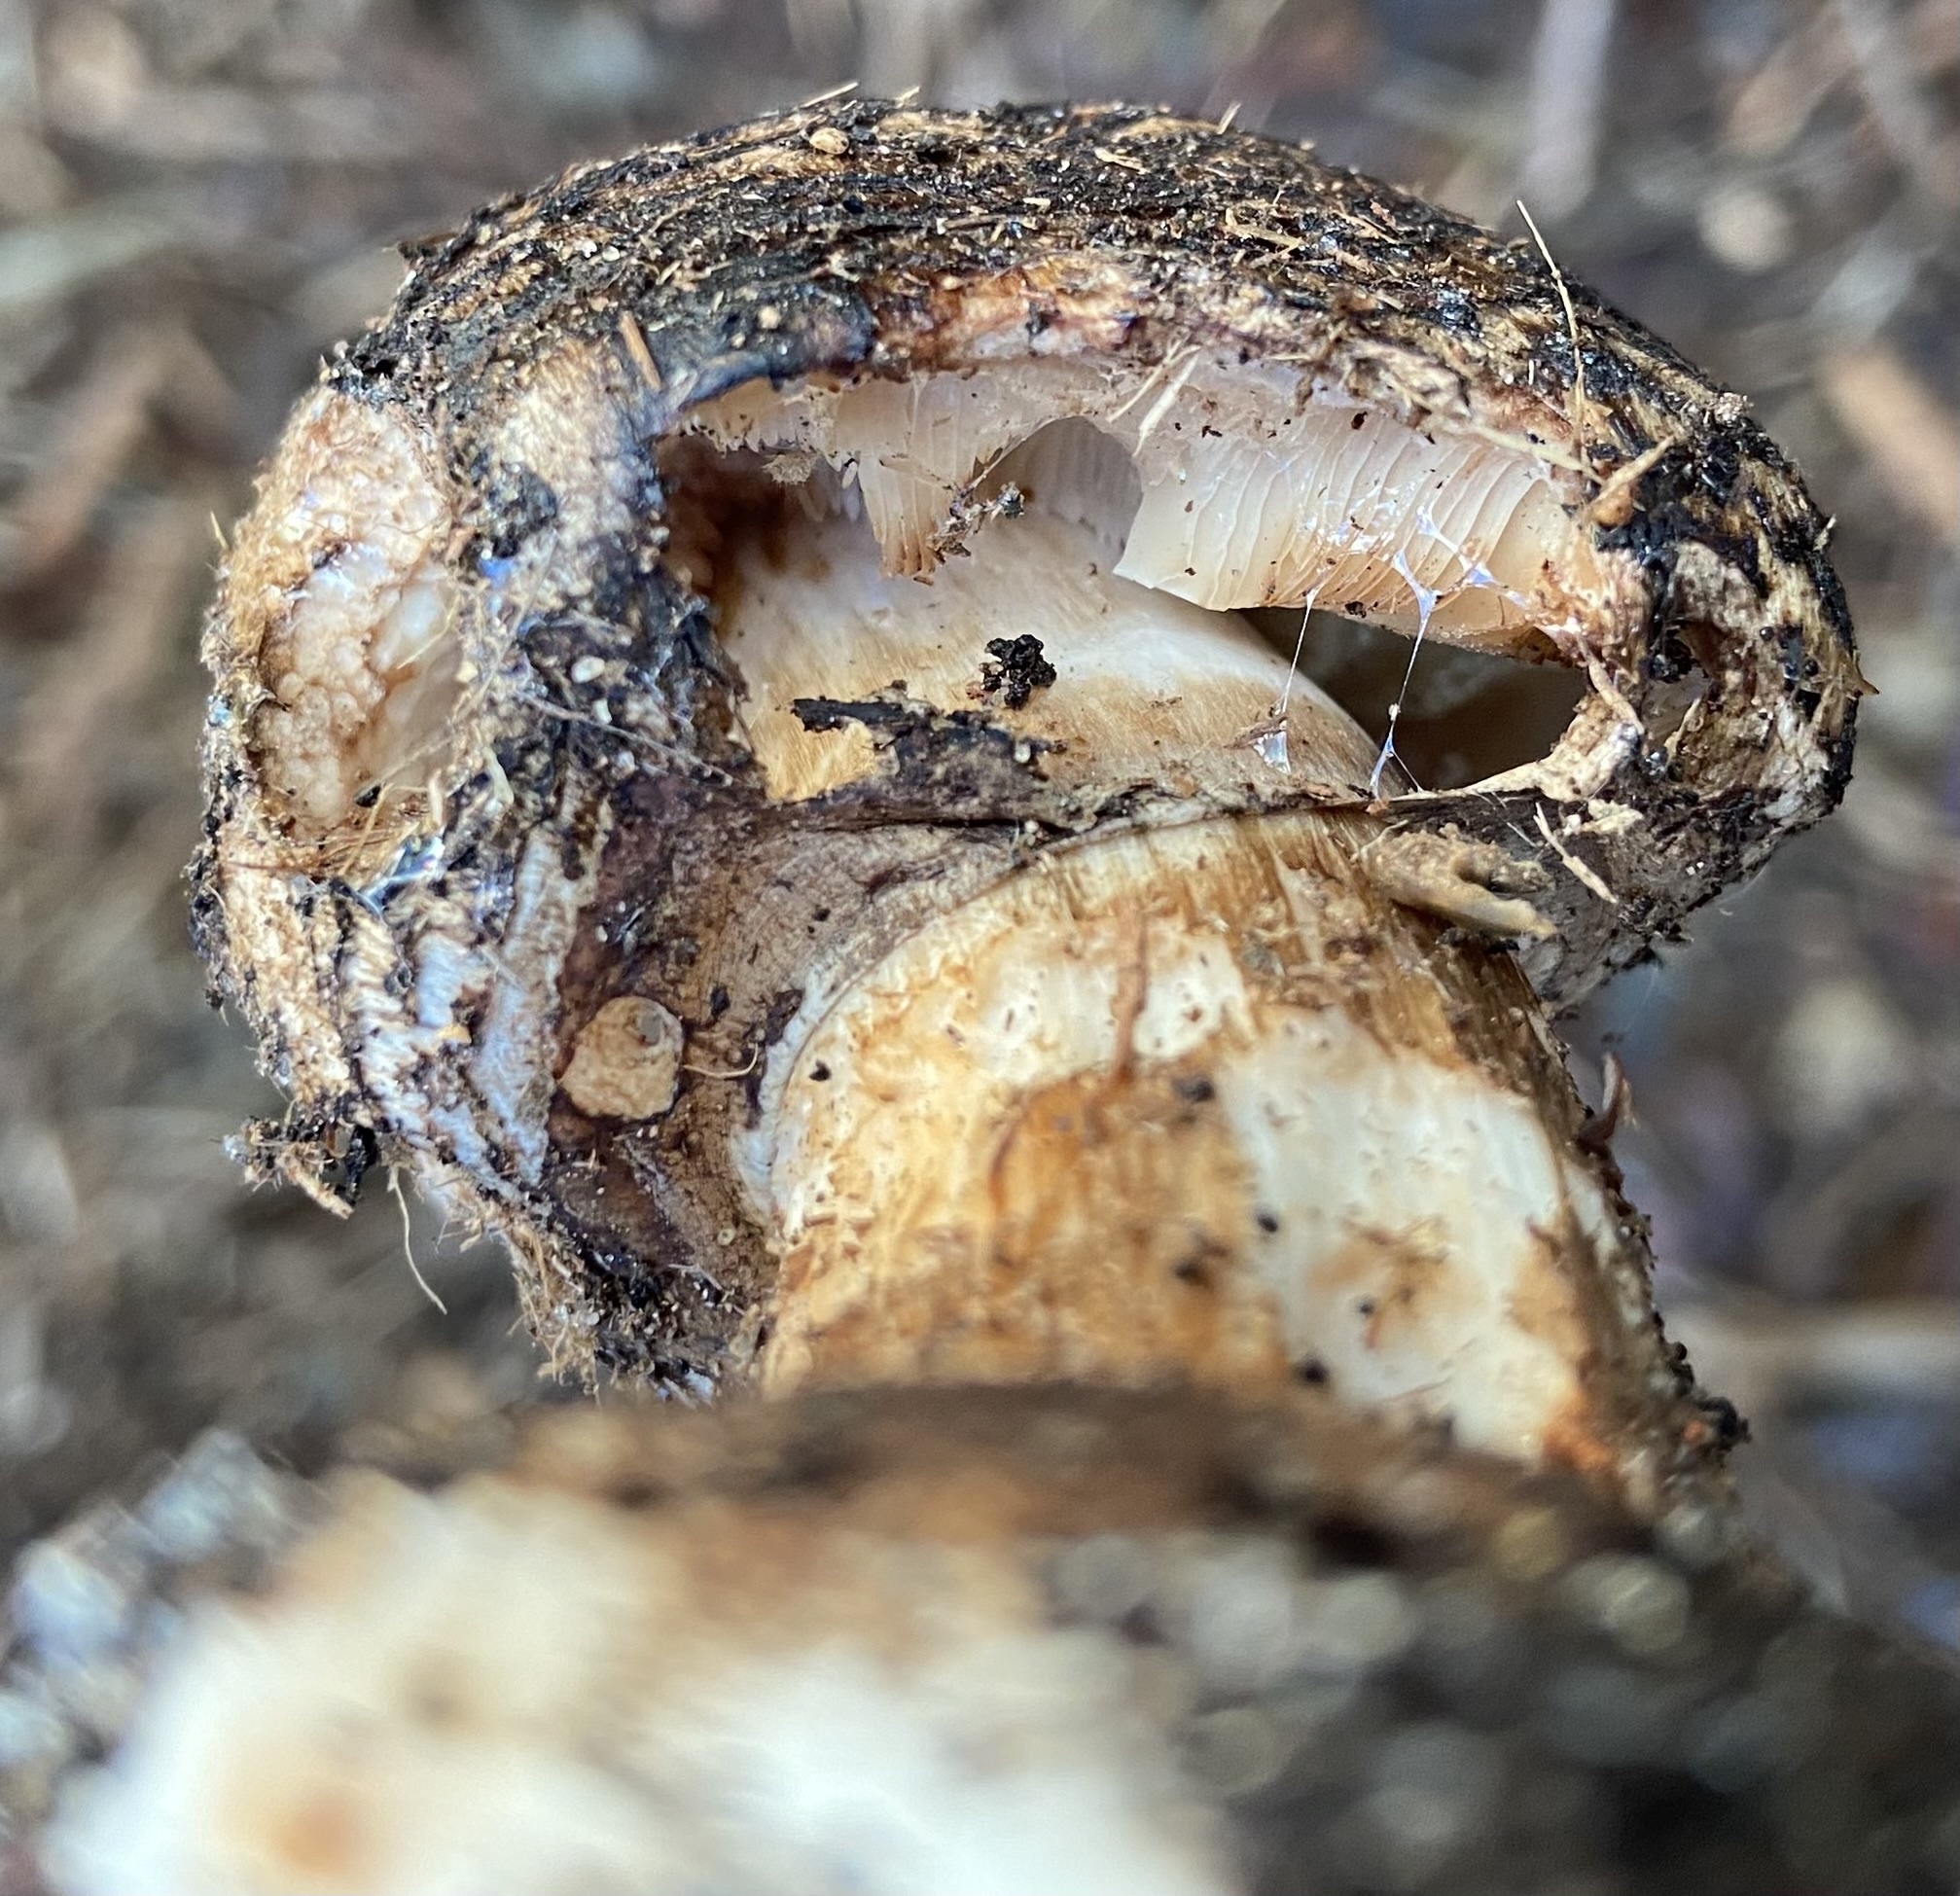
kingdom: Fungi
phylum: Basidiomycota
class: Agaricomycetes
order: Agaricales
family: Agaricaceae
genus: Chlorophyllum
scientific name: Chlorophyllum brunneum
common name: Brown parasol
